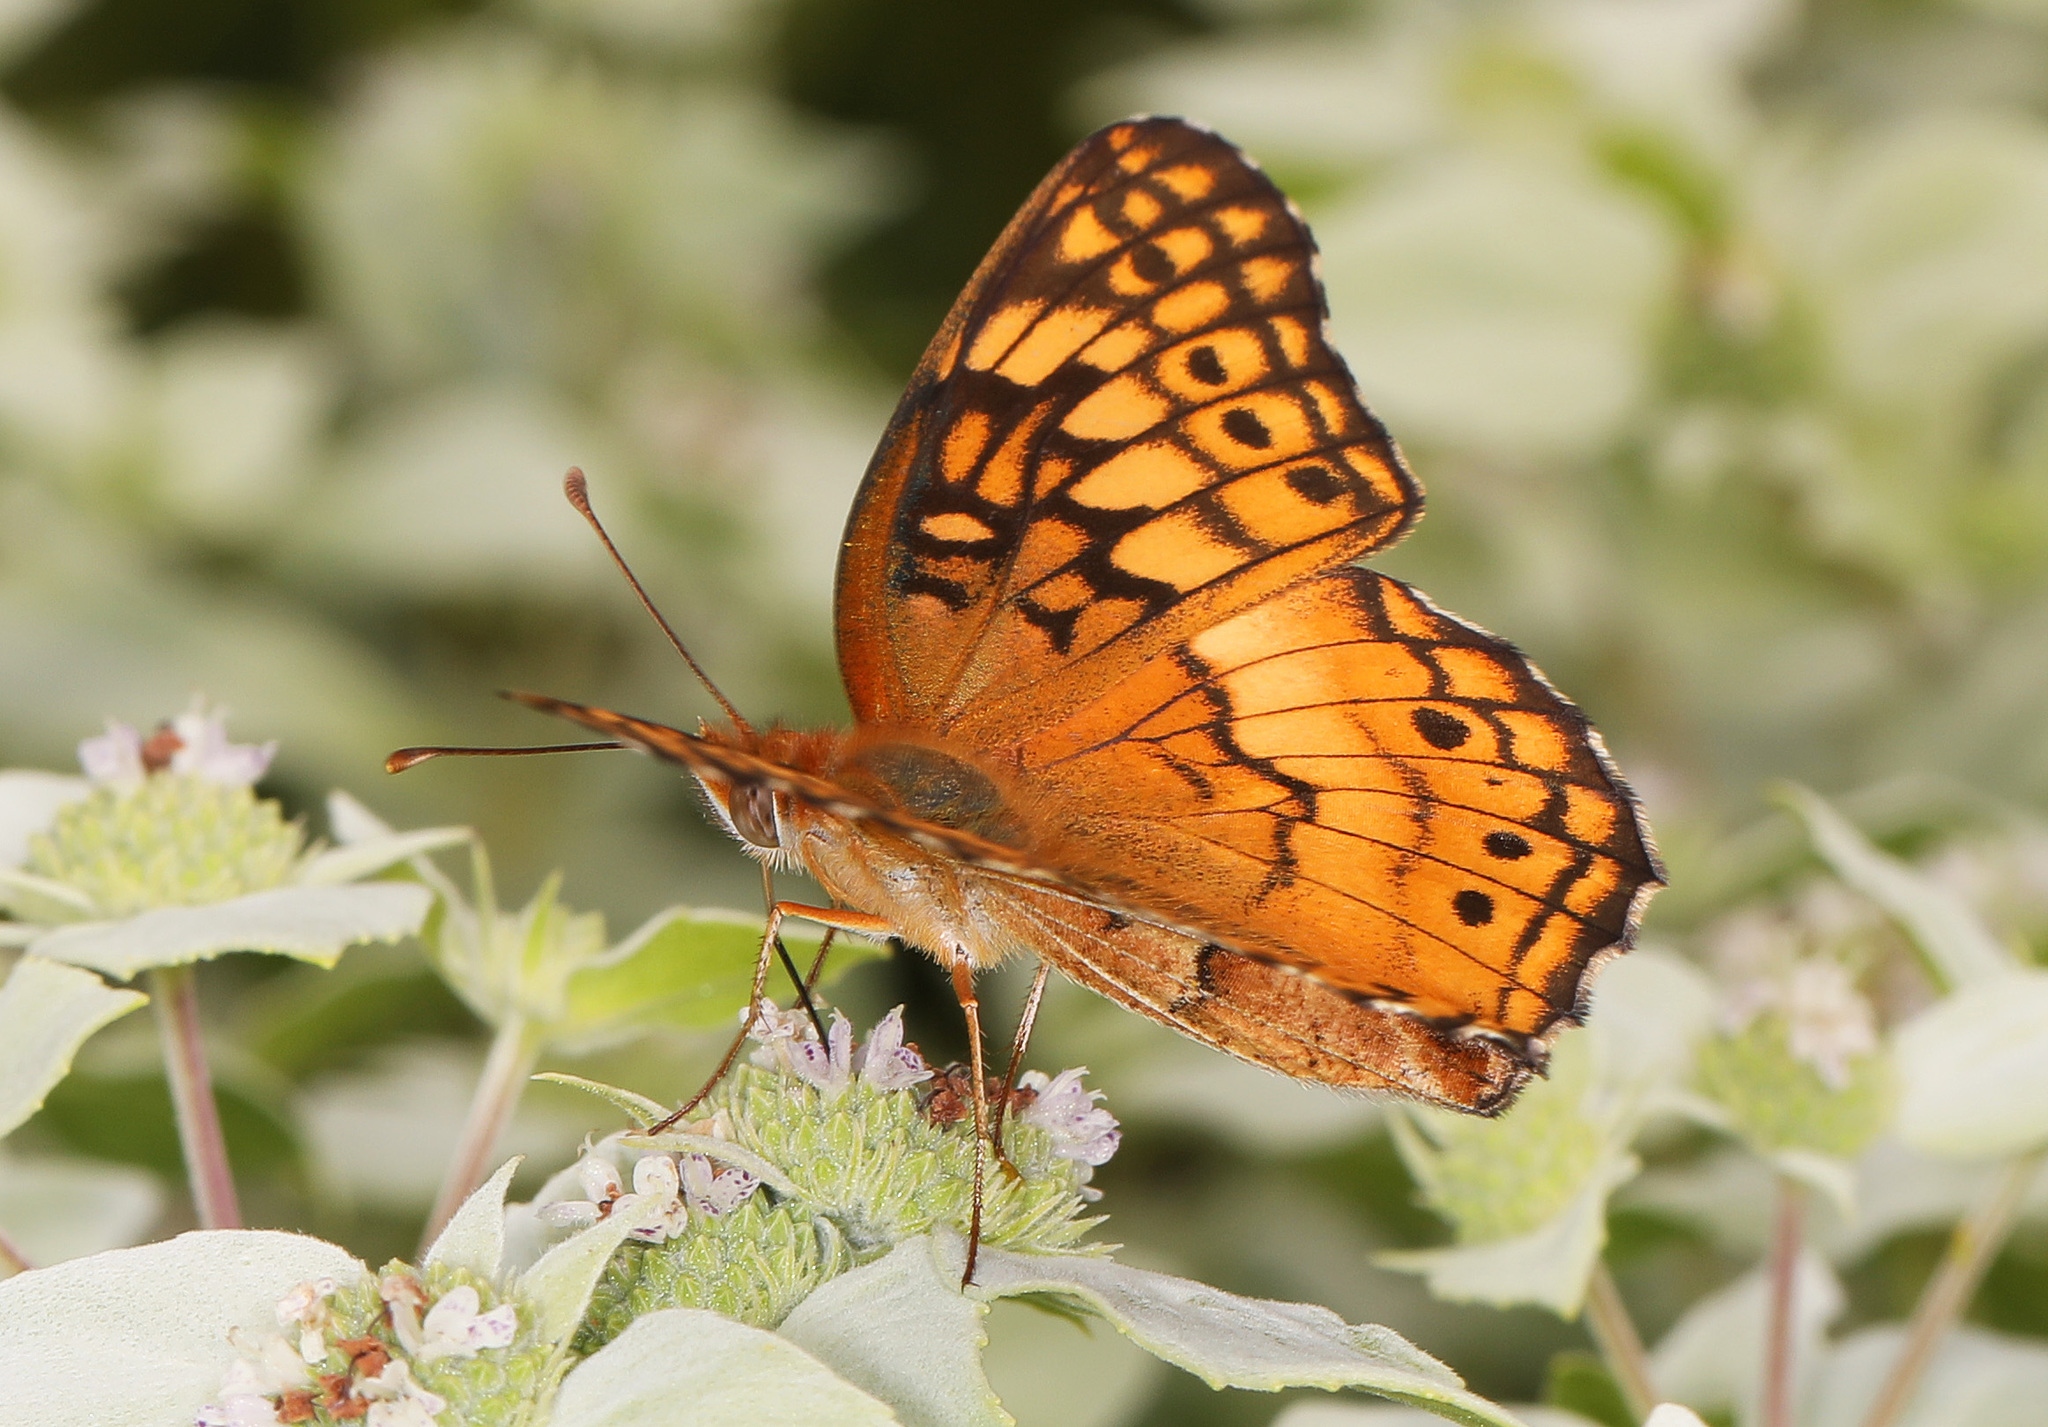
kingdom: Animalia
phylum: Arthropoda
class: Insecta
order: Lepidoptera
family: Nymphalidae
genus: Euptoieta
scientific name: Euptoieta claudia
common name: Variegated fritillary
